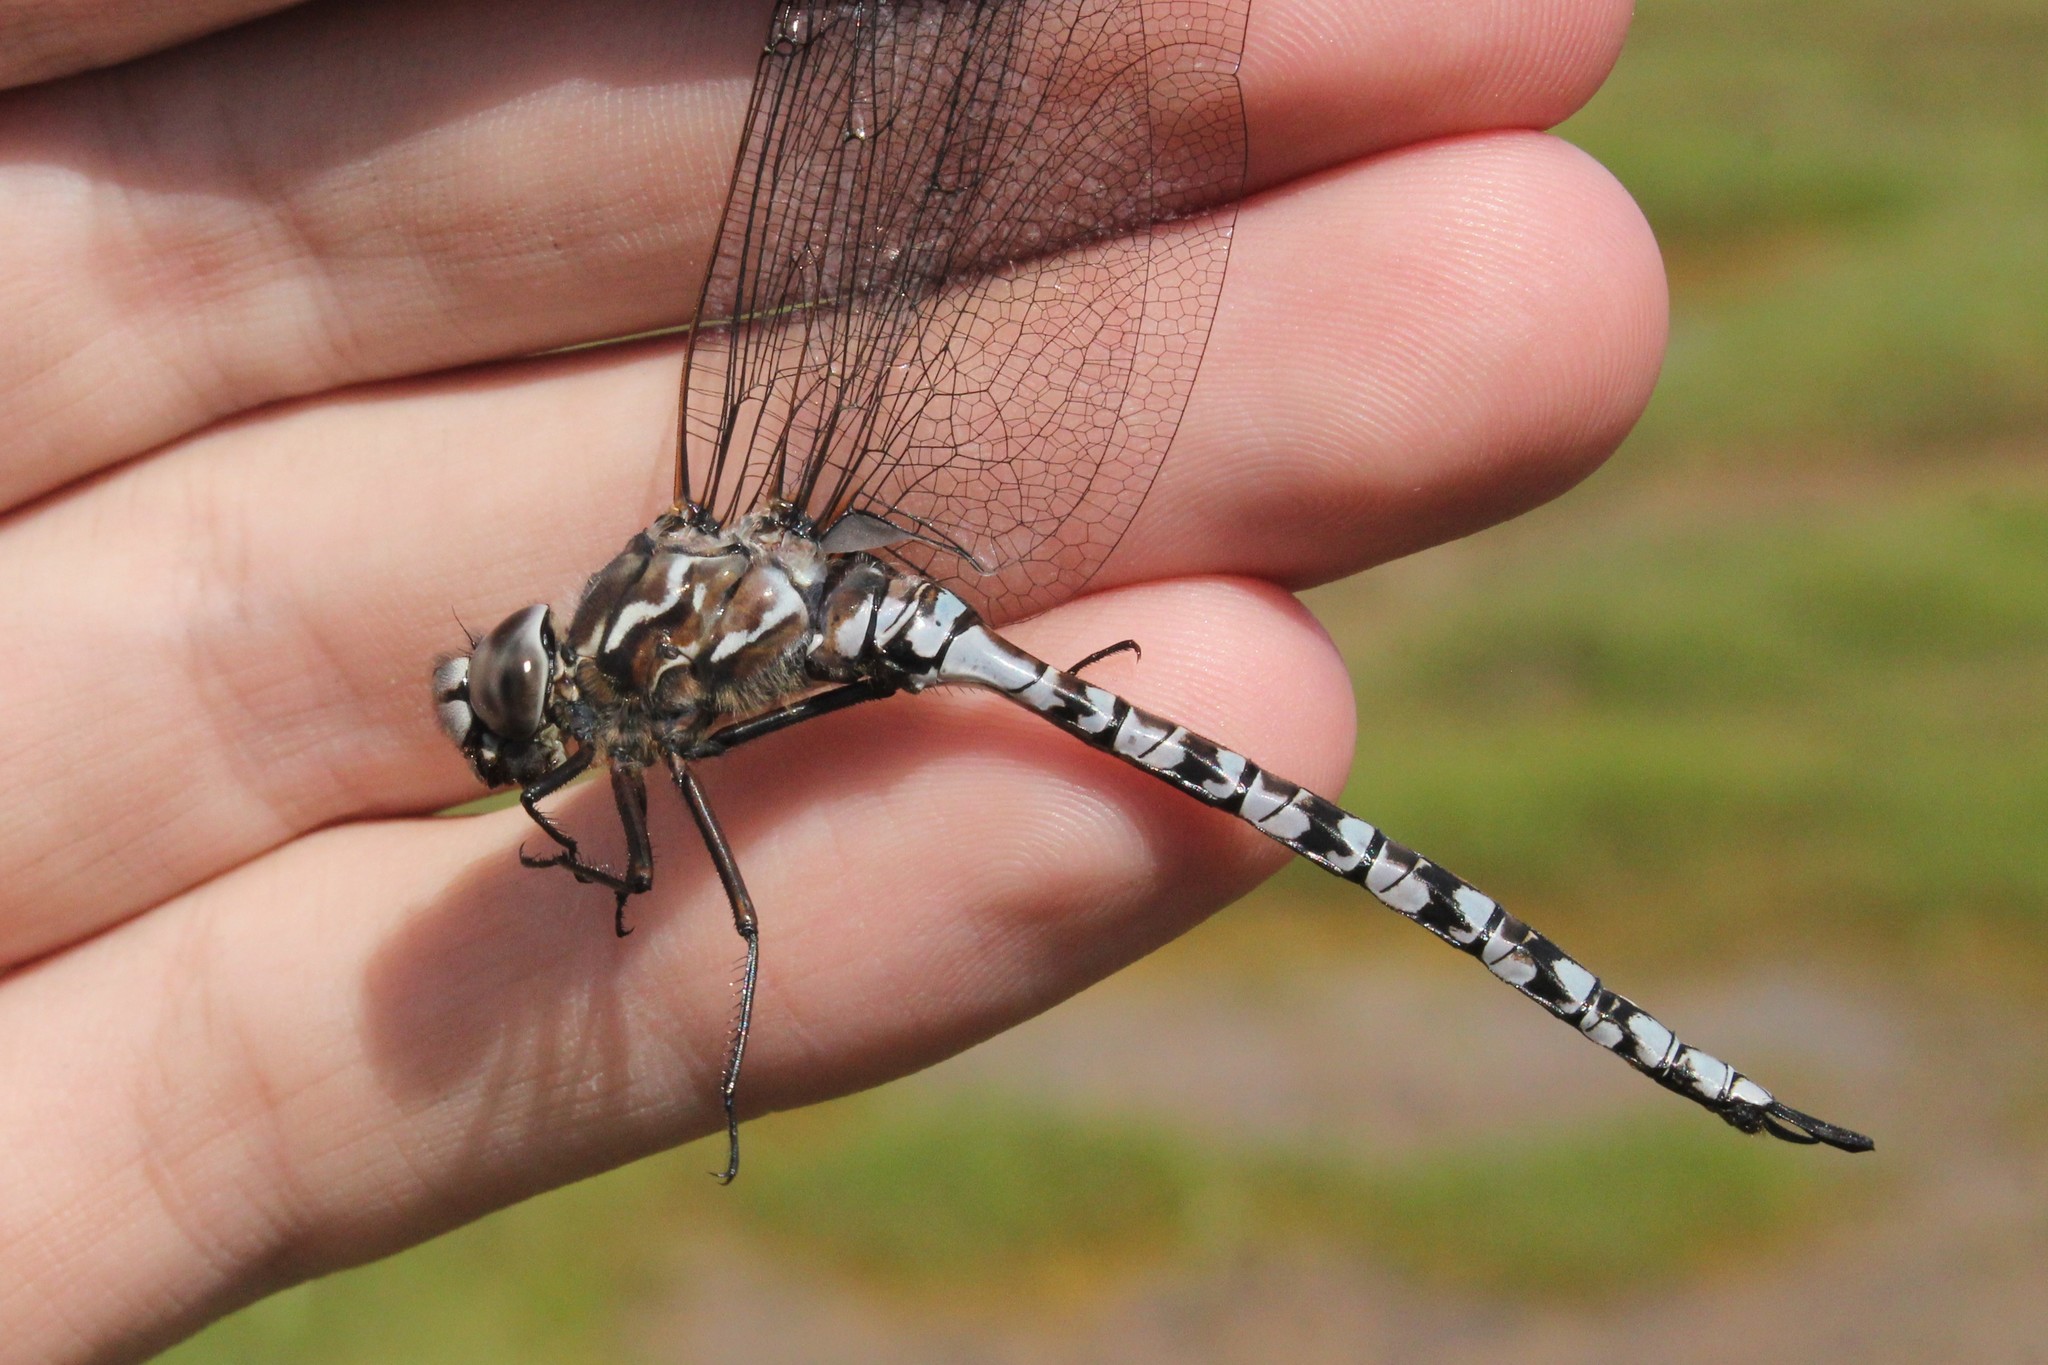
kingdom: Animalia
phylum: Arthropoda
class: Insecta
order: Odonata
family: Aeshnidae
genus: Aeshna
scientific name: Aeshna sitchensis
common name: Zigzag darner
